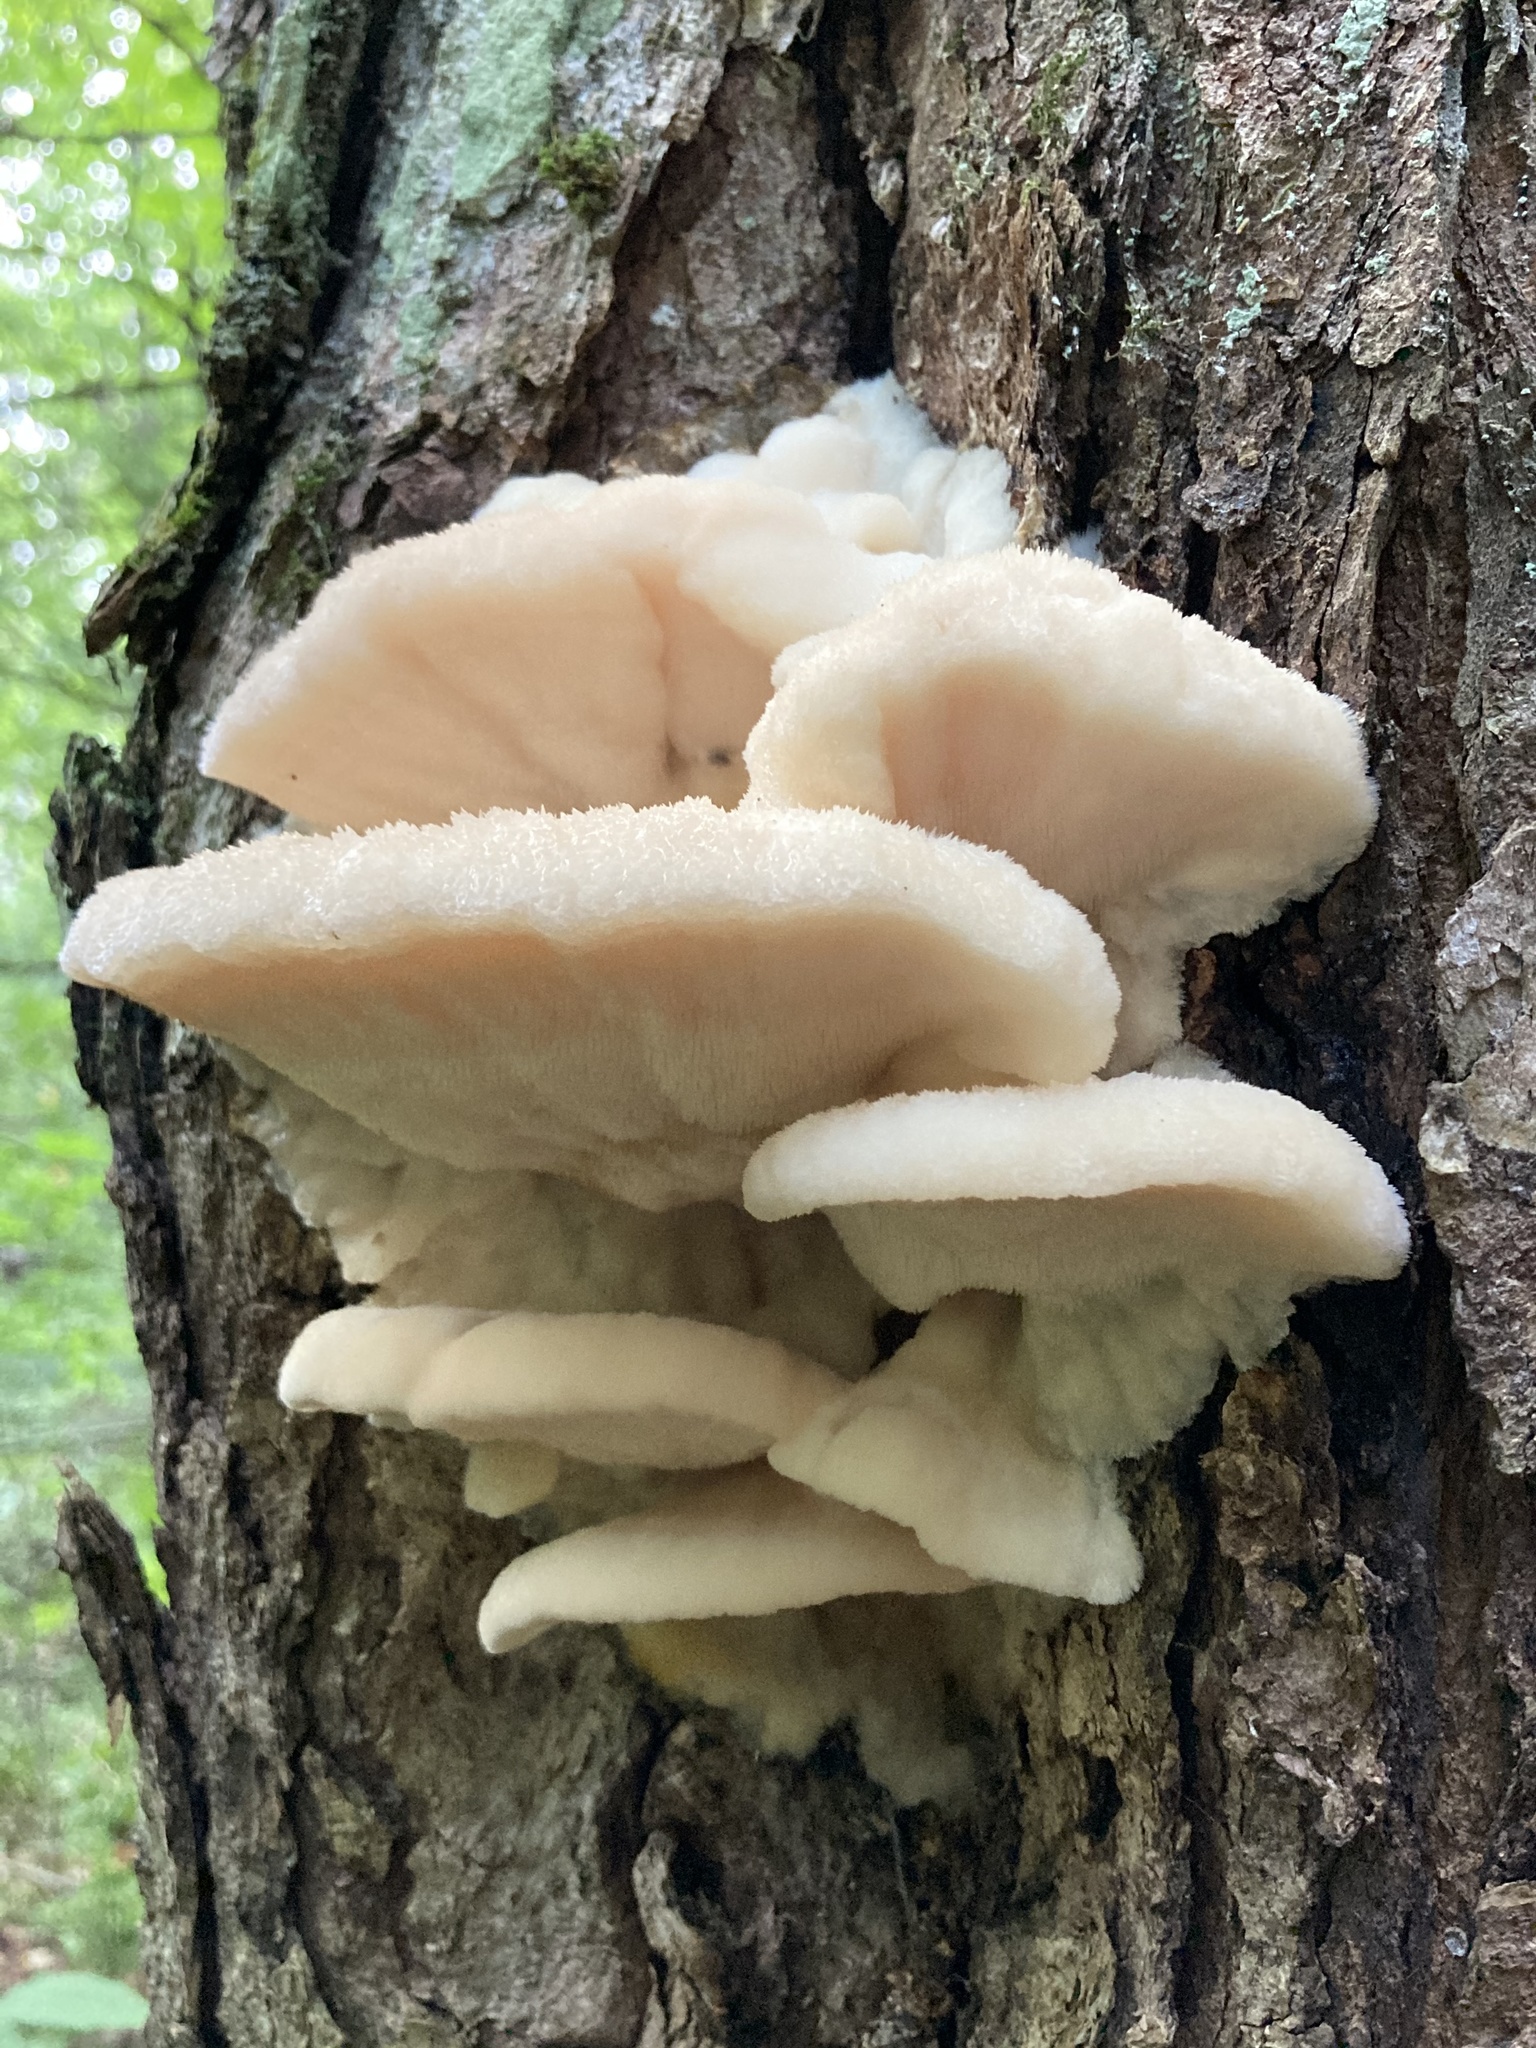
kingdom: Fungi
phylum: Basidiomycota
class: Agaricomycetes
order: Polyporales
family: Meruliaceae
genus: Climacodon
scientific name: Climacodon septentrionalis
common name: Northern tooth
